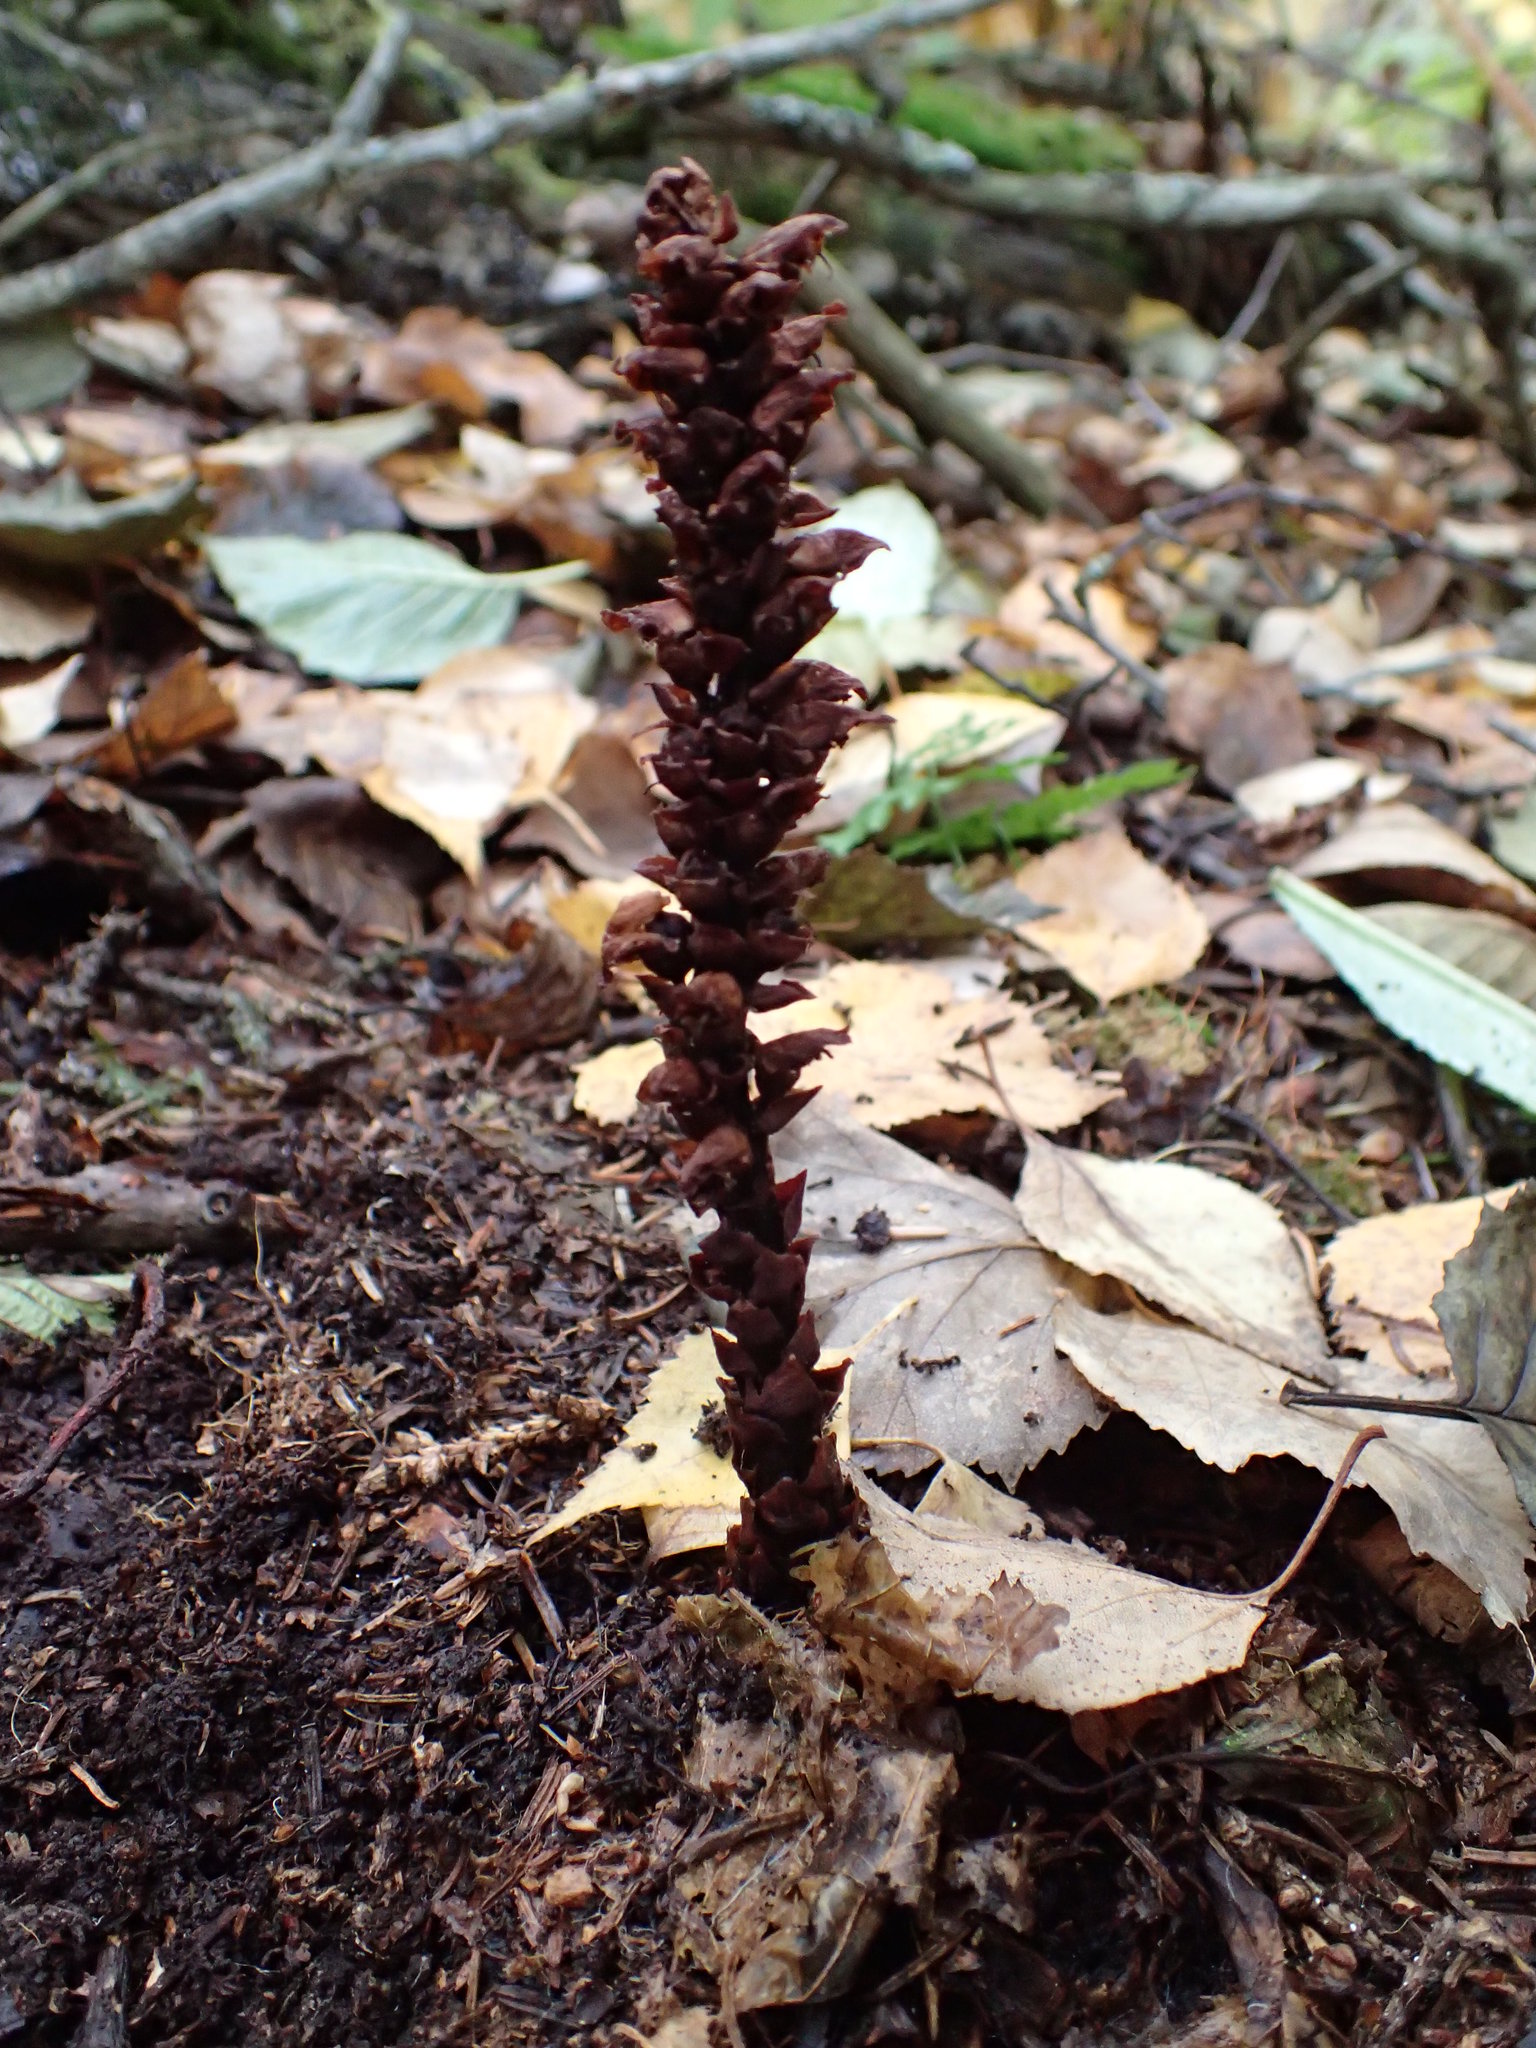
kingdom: Plantae
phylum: Tracheophyta
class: Magnoliopsida
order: Lamiales
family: Orobanchaceae
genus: Boschniakia
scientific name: Boschniakia rossica
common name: Poque
